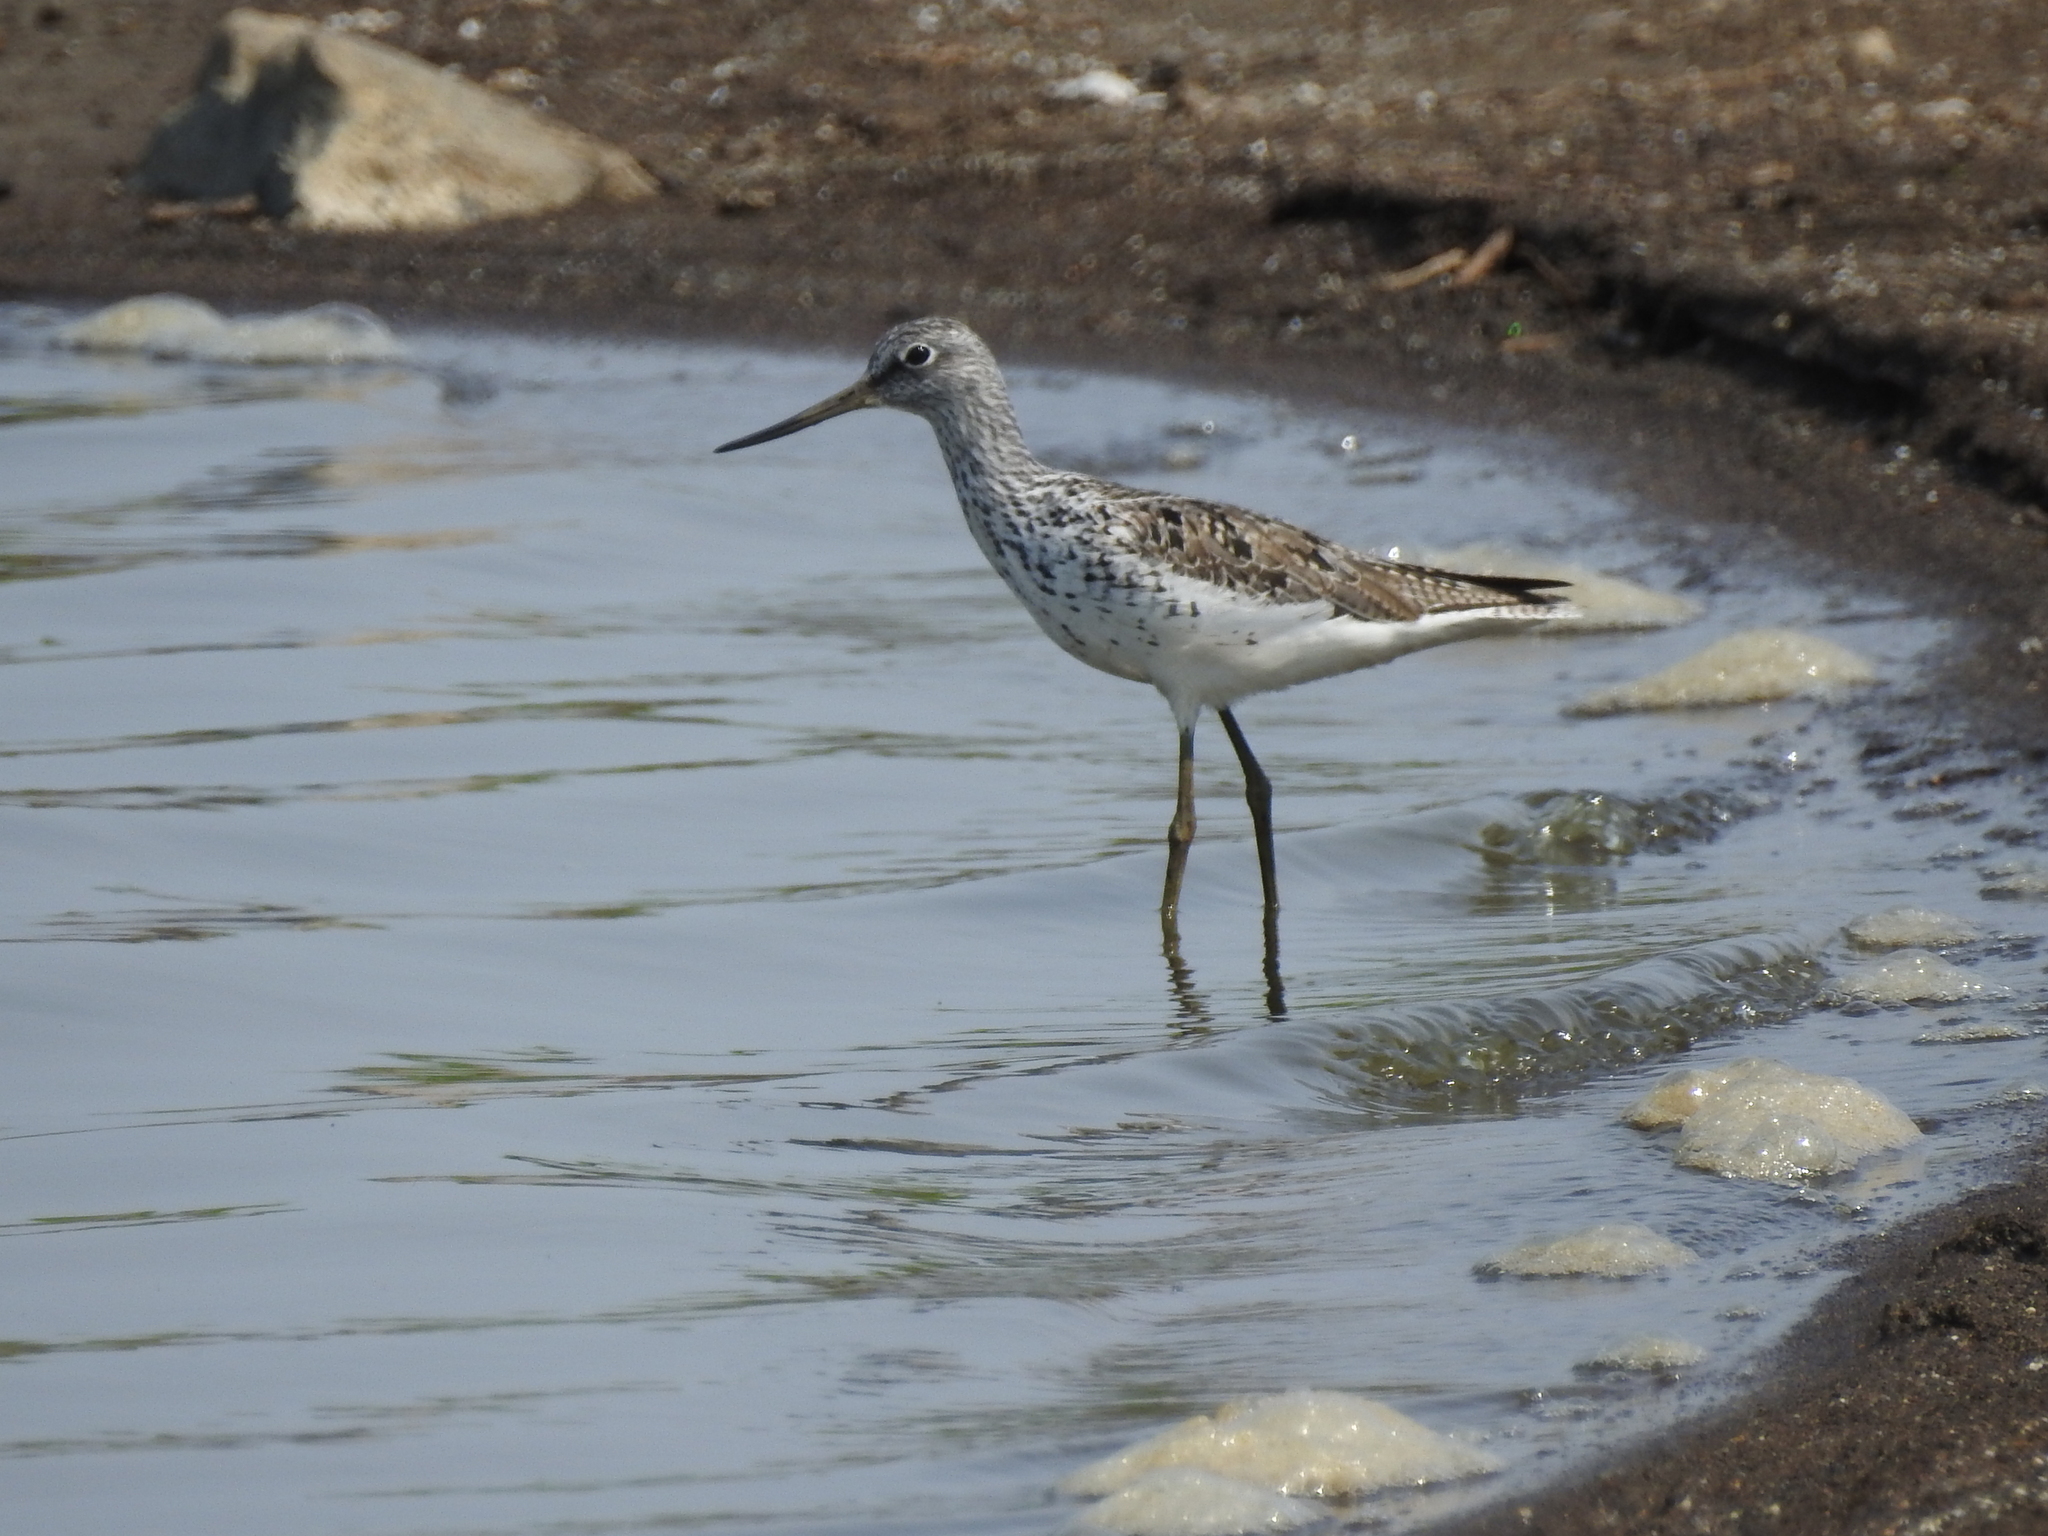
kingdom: Animalia
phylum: Chordata
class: Aves
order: Charadriiformes
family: Scolopacidae
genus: Tringa
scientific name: Tringa nebularia
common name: Common greenshank
